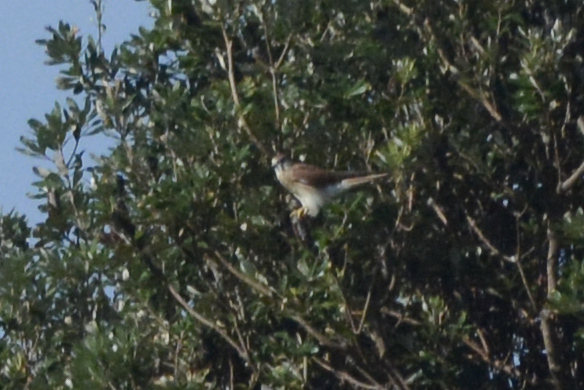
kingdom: Animalia
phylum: Chordata
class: Aves
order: Falconiformes
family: Falconidae
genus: Falco
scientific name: Falco cenchroides
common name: Nankeen kestrel
